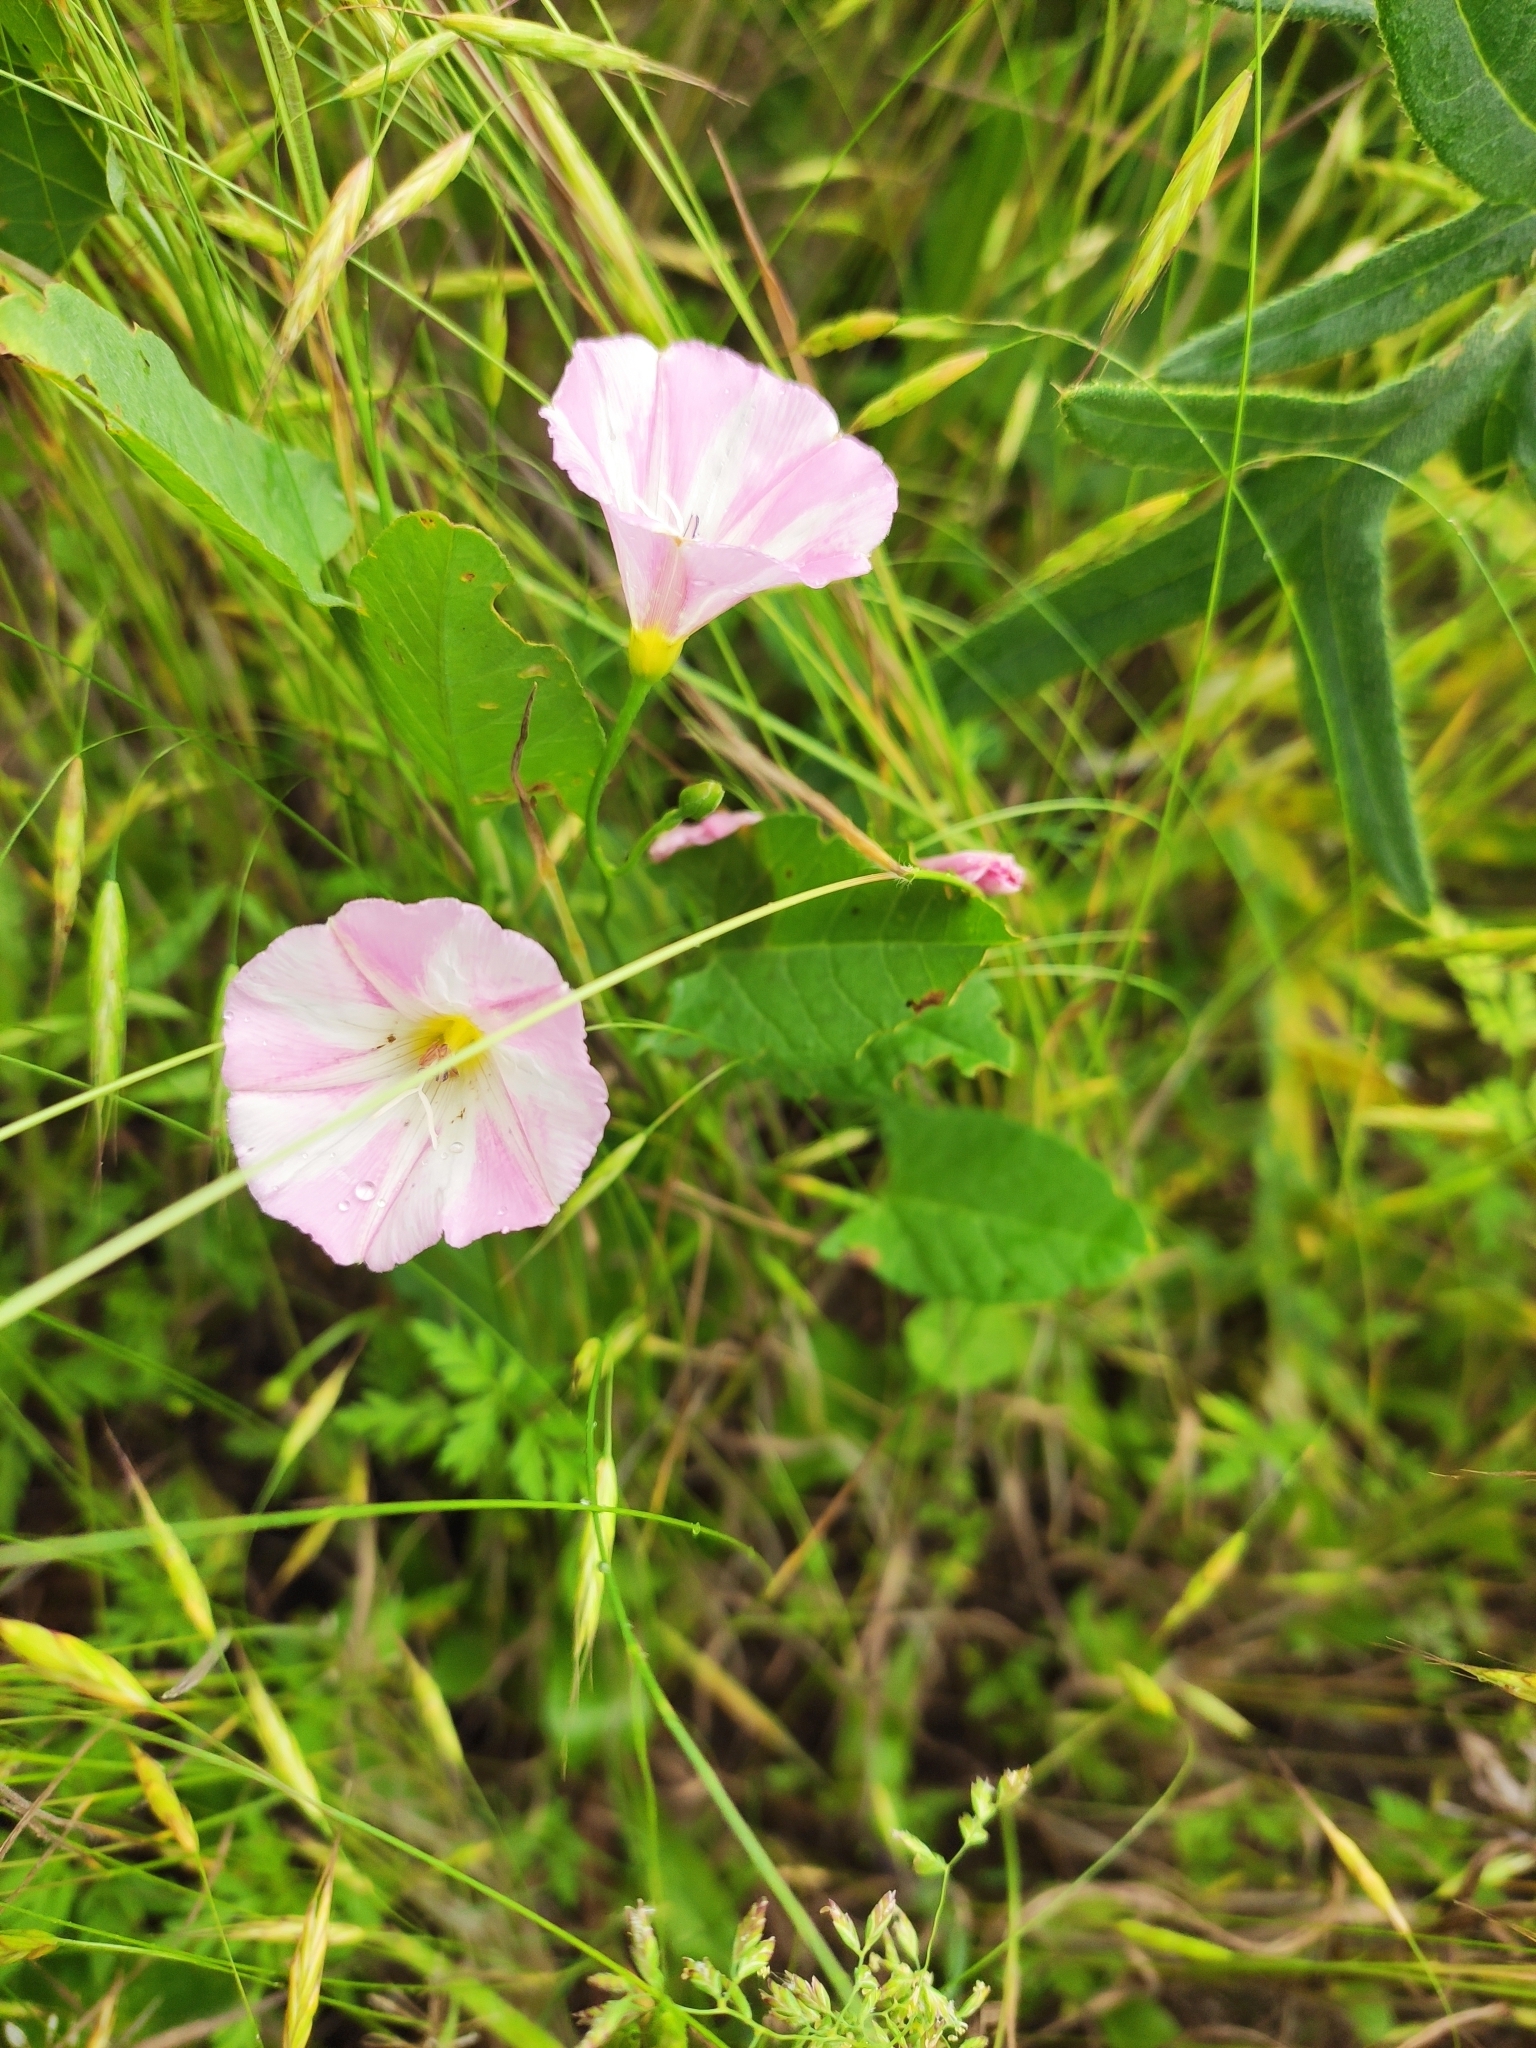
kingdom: Plantae
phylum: Tracheophyta
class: Magnoliopsida
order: Solanales
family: Convolvulaceae
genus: Convolvulus
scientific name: Convolvulus arvensis
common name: Field bindweed
